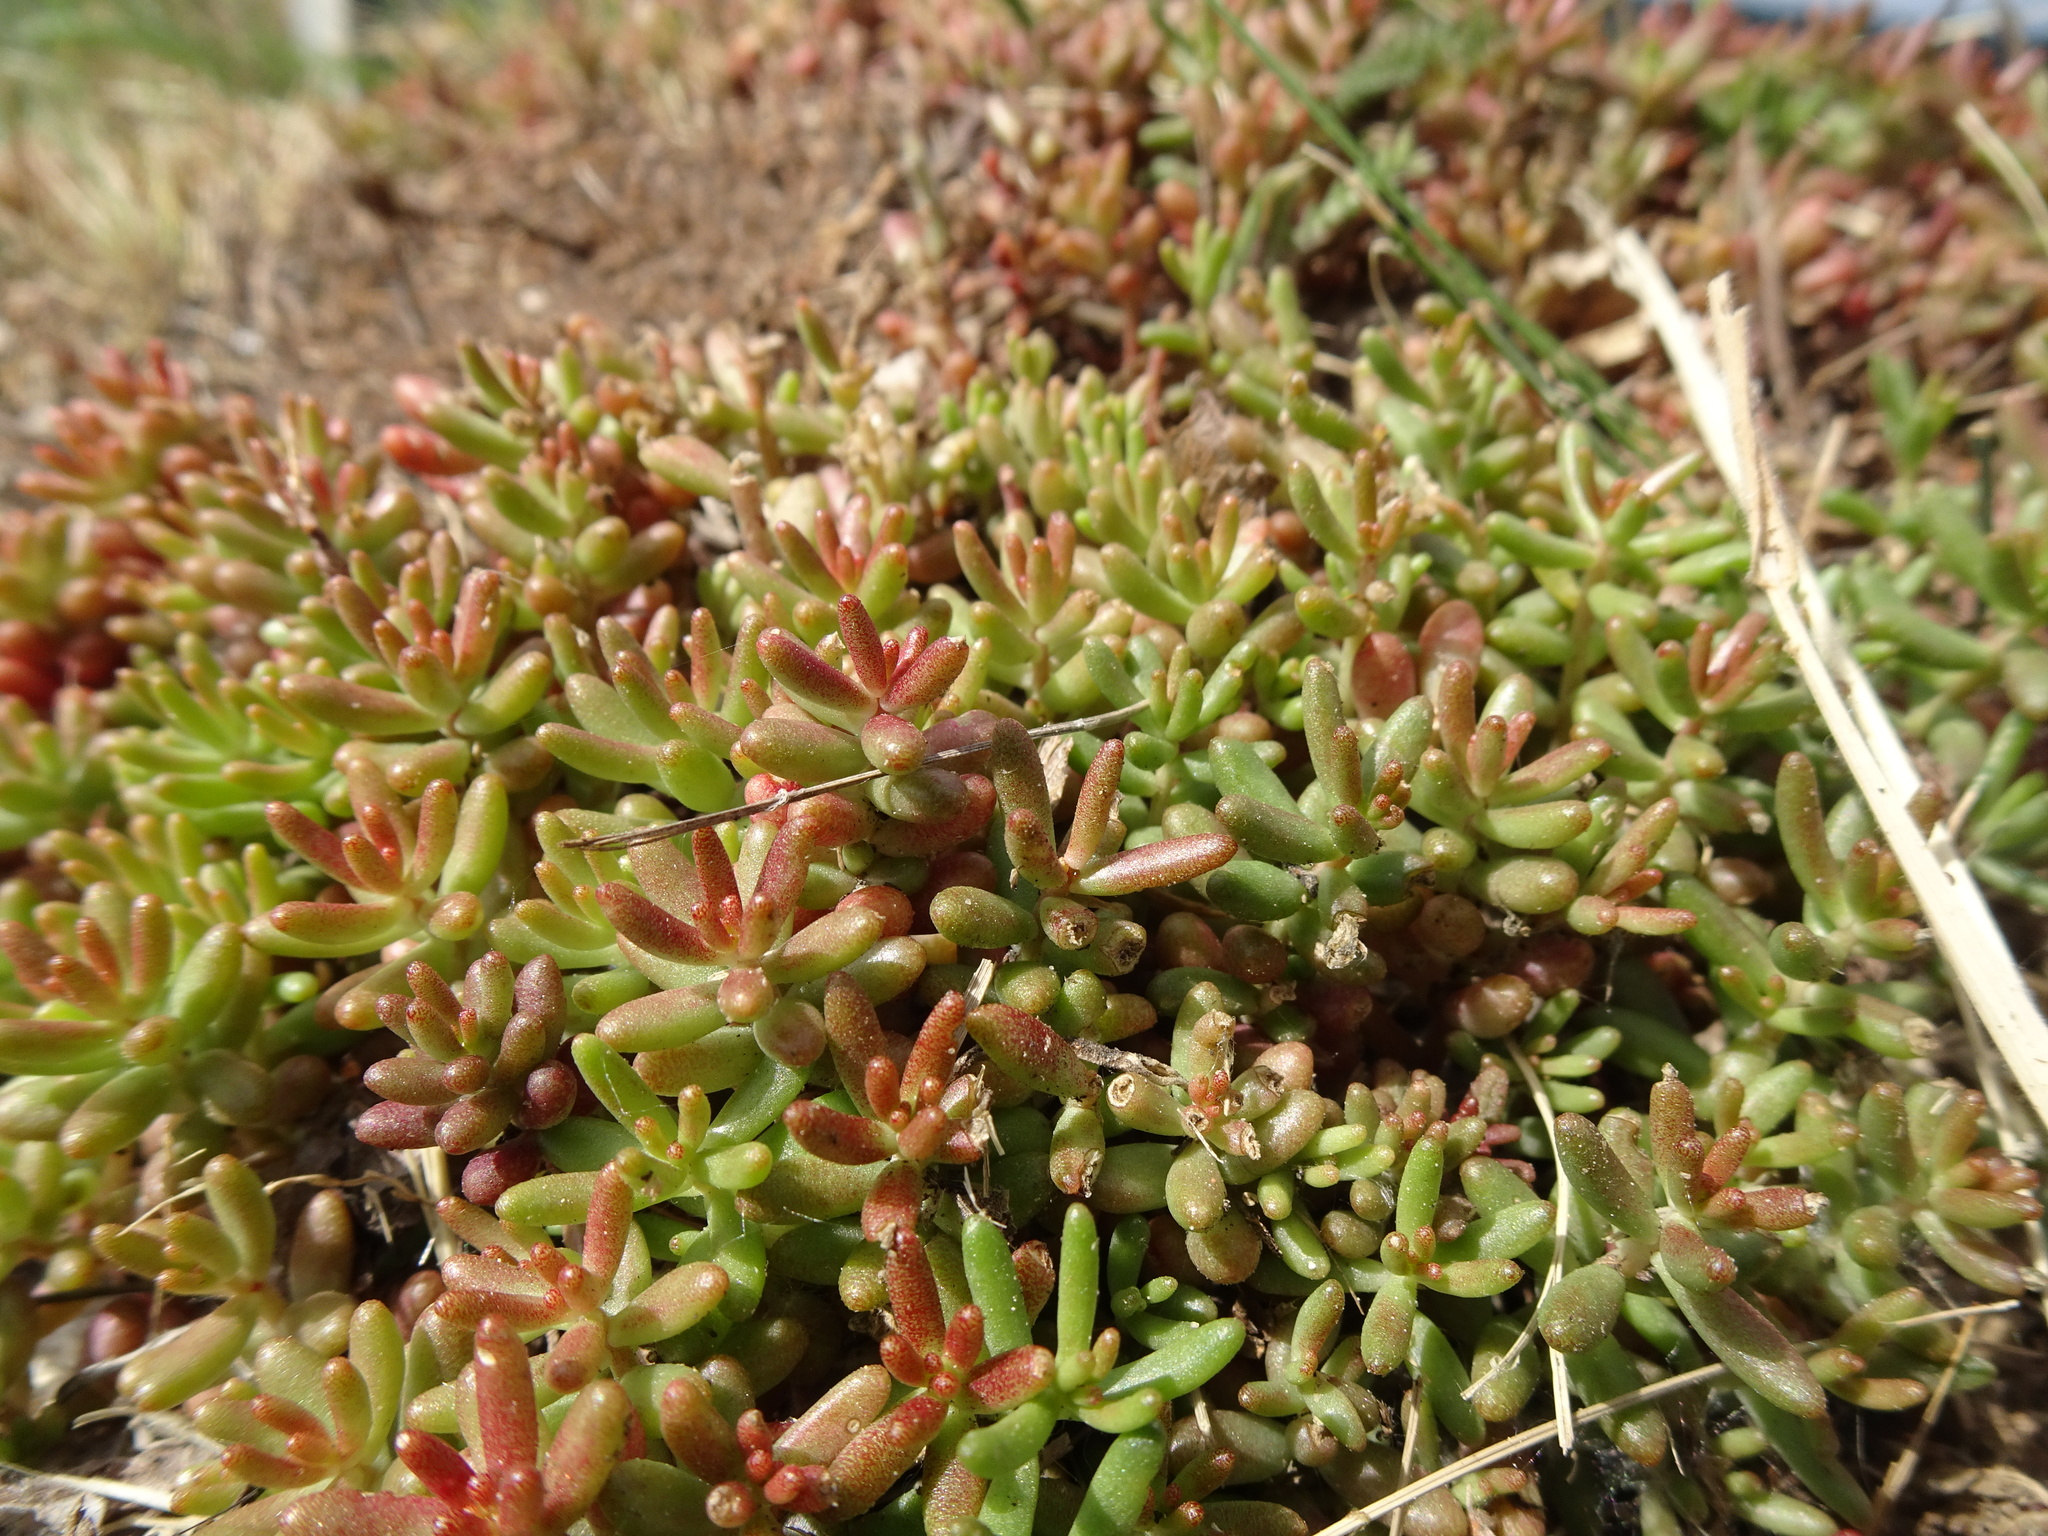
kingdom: Plantae
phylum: Tracheophyta
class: Magnoliopsida
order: Saxifragales
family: Crassulaceae
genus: Sedum
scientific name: Sedum album
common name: White stonecrop
